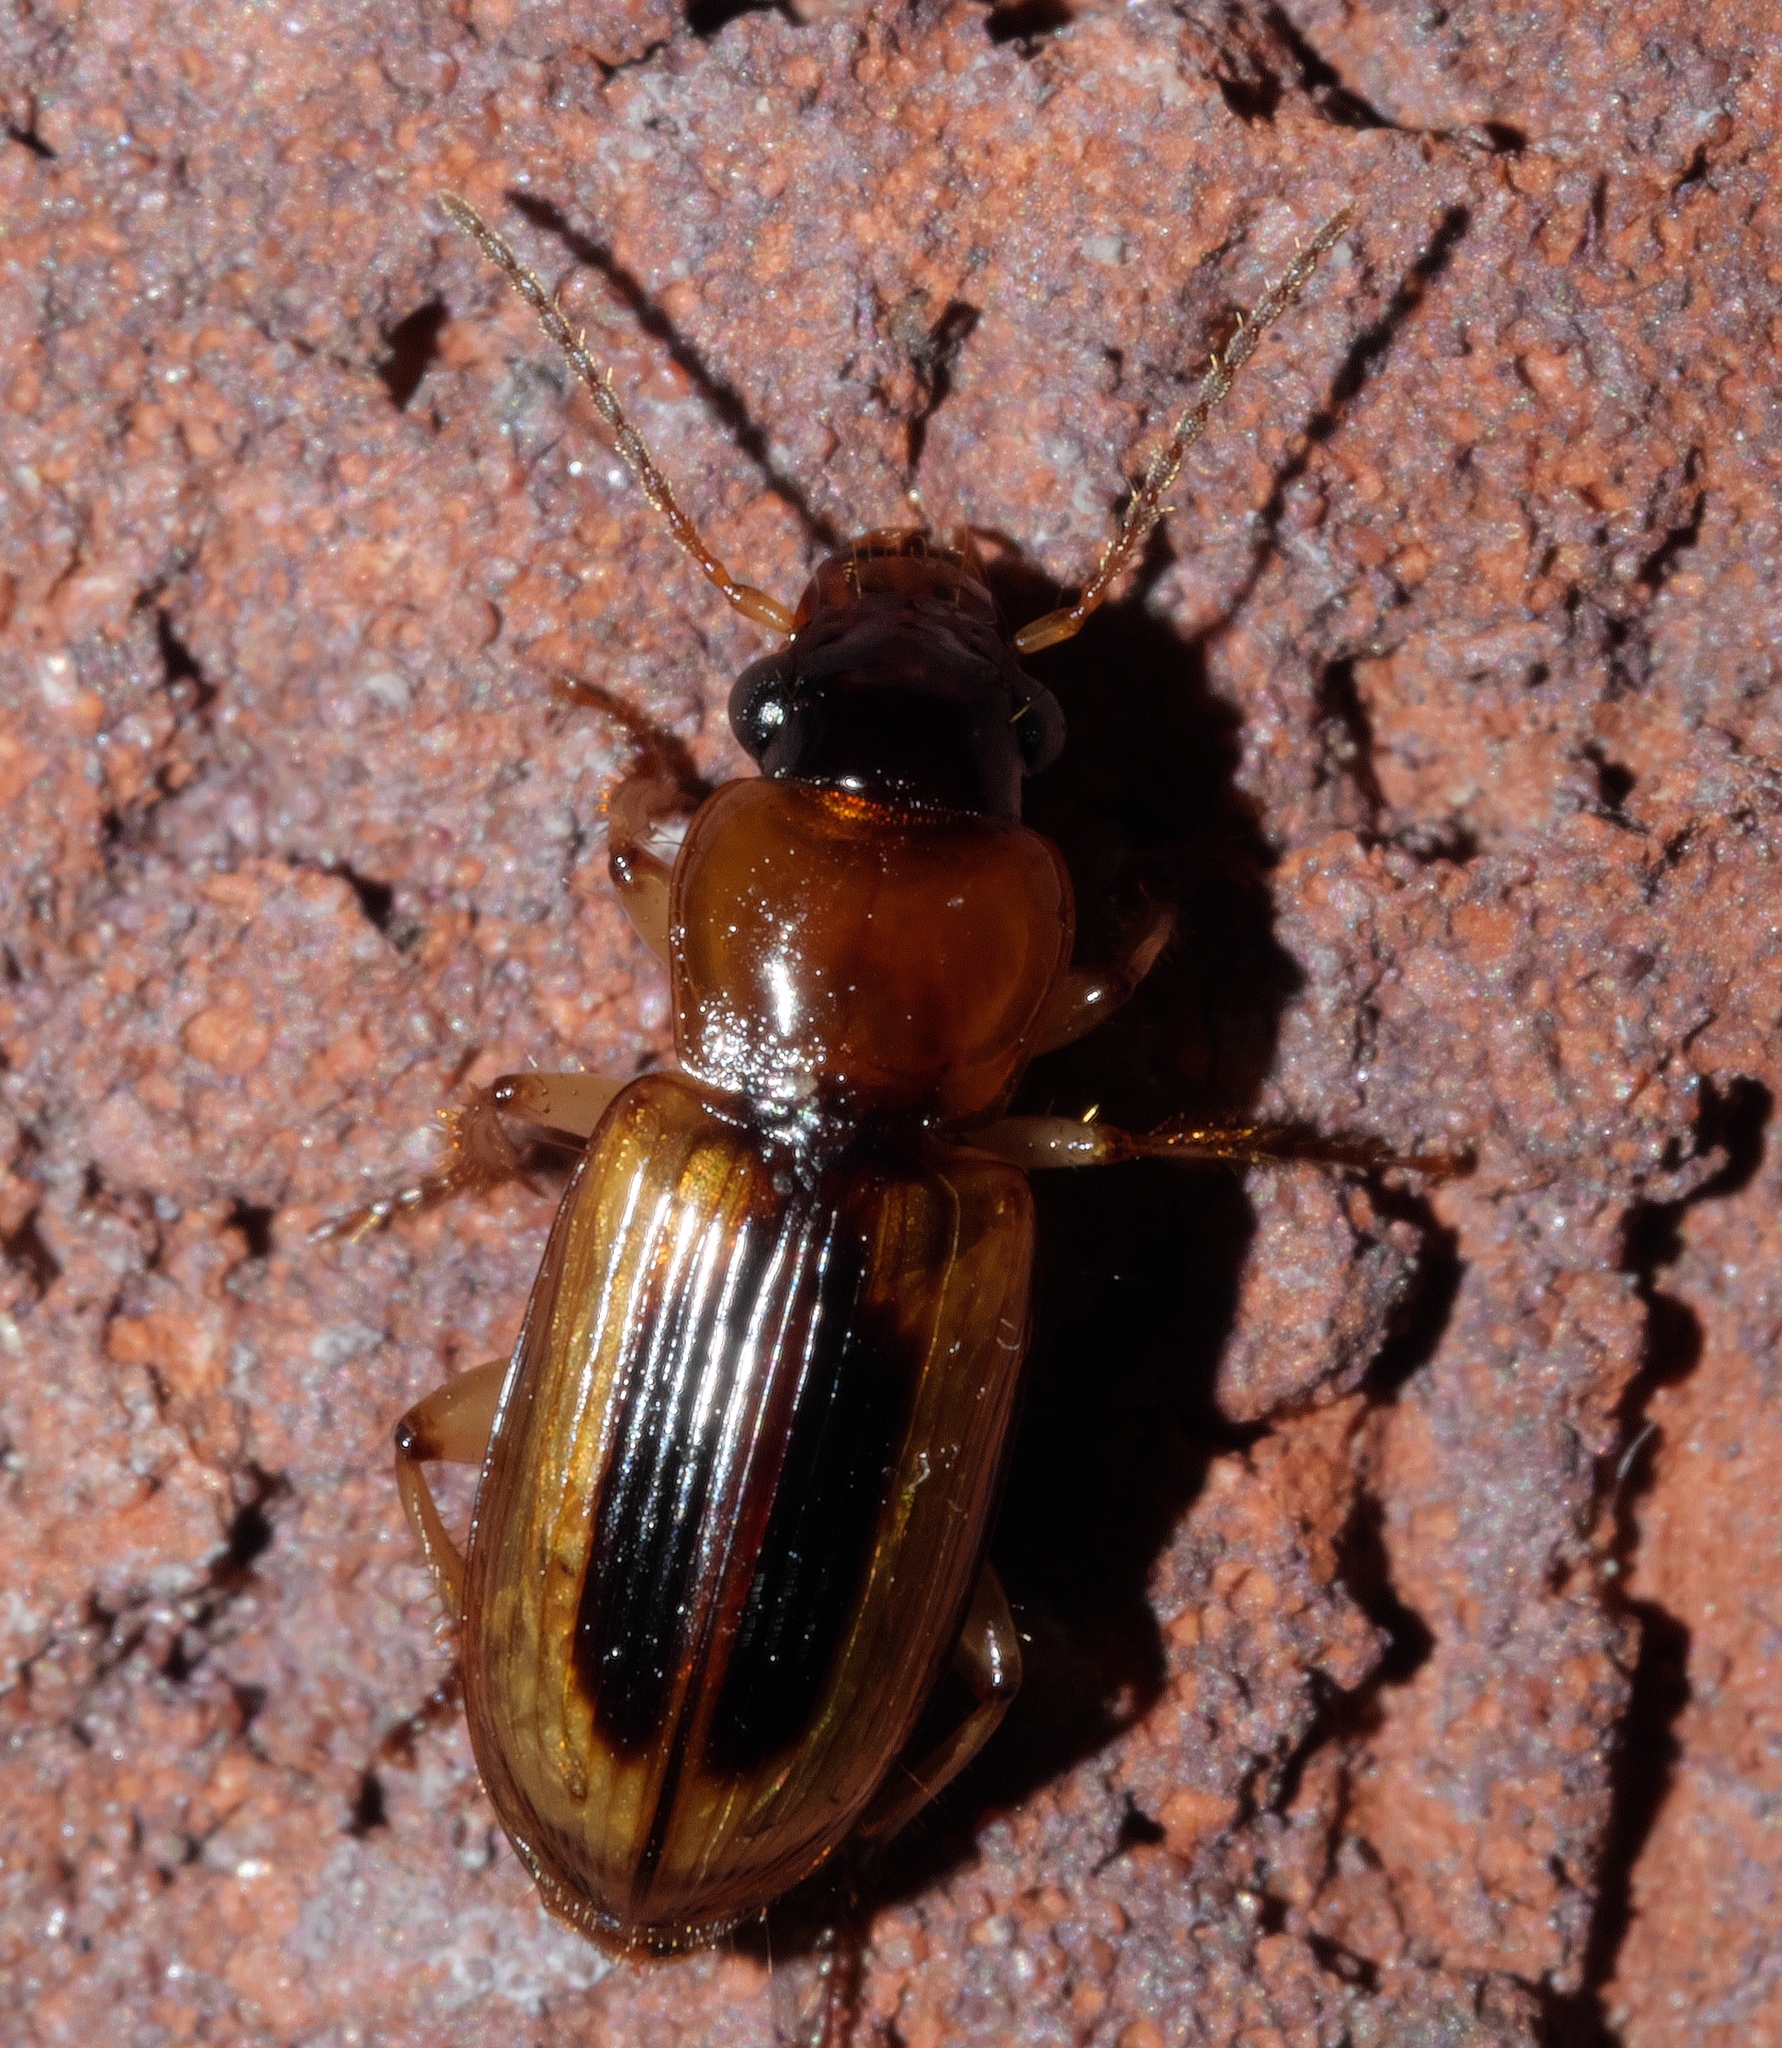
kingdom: Animalia
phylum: Arthropoda
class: Insecta
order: Coleoptera
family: Carabidae
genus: Stenolophus
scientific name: Stenolophus lecontei
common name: Leconte's seedcorn beetle
